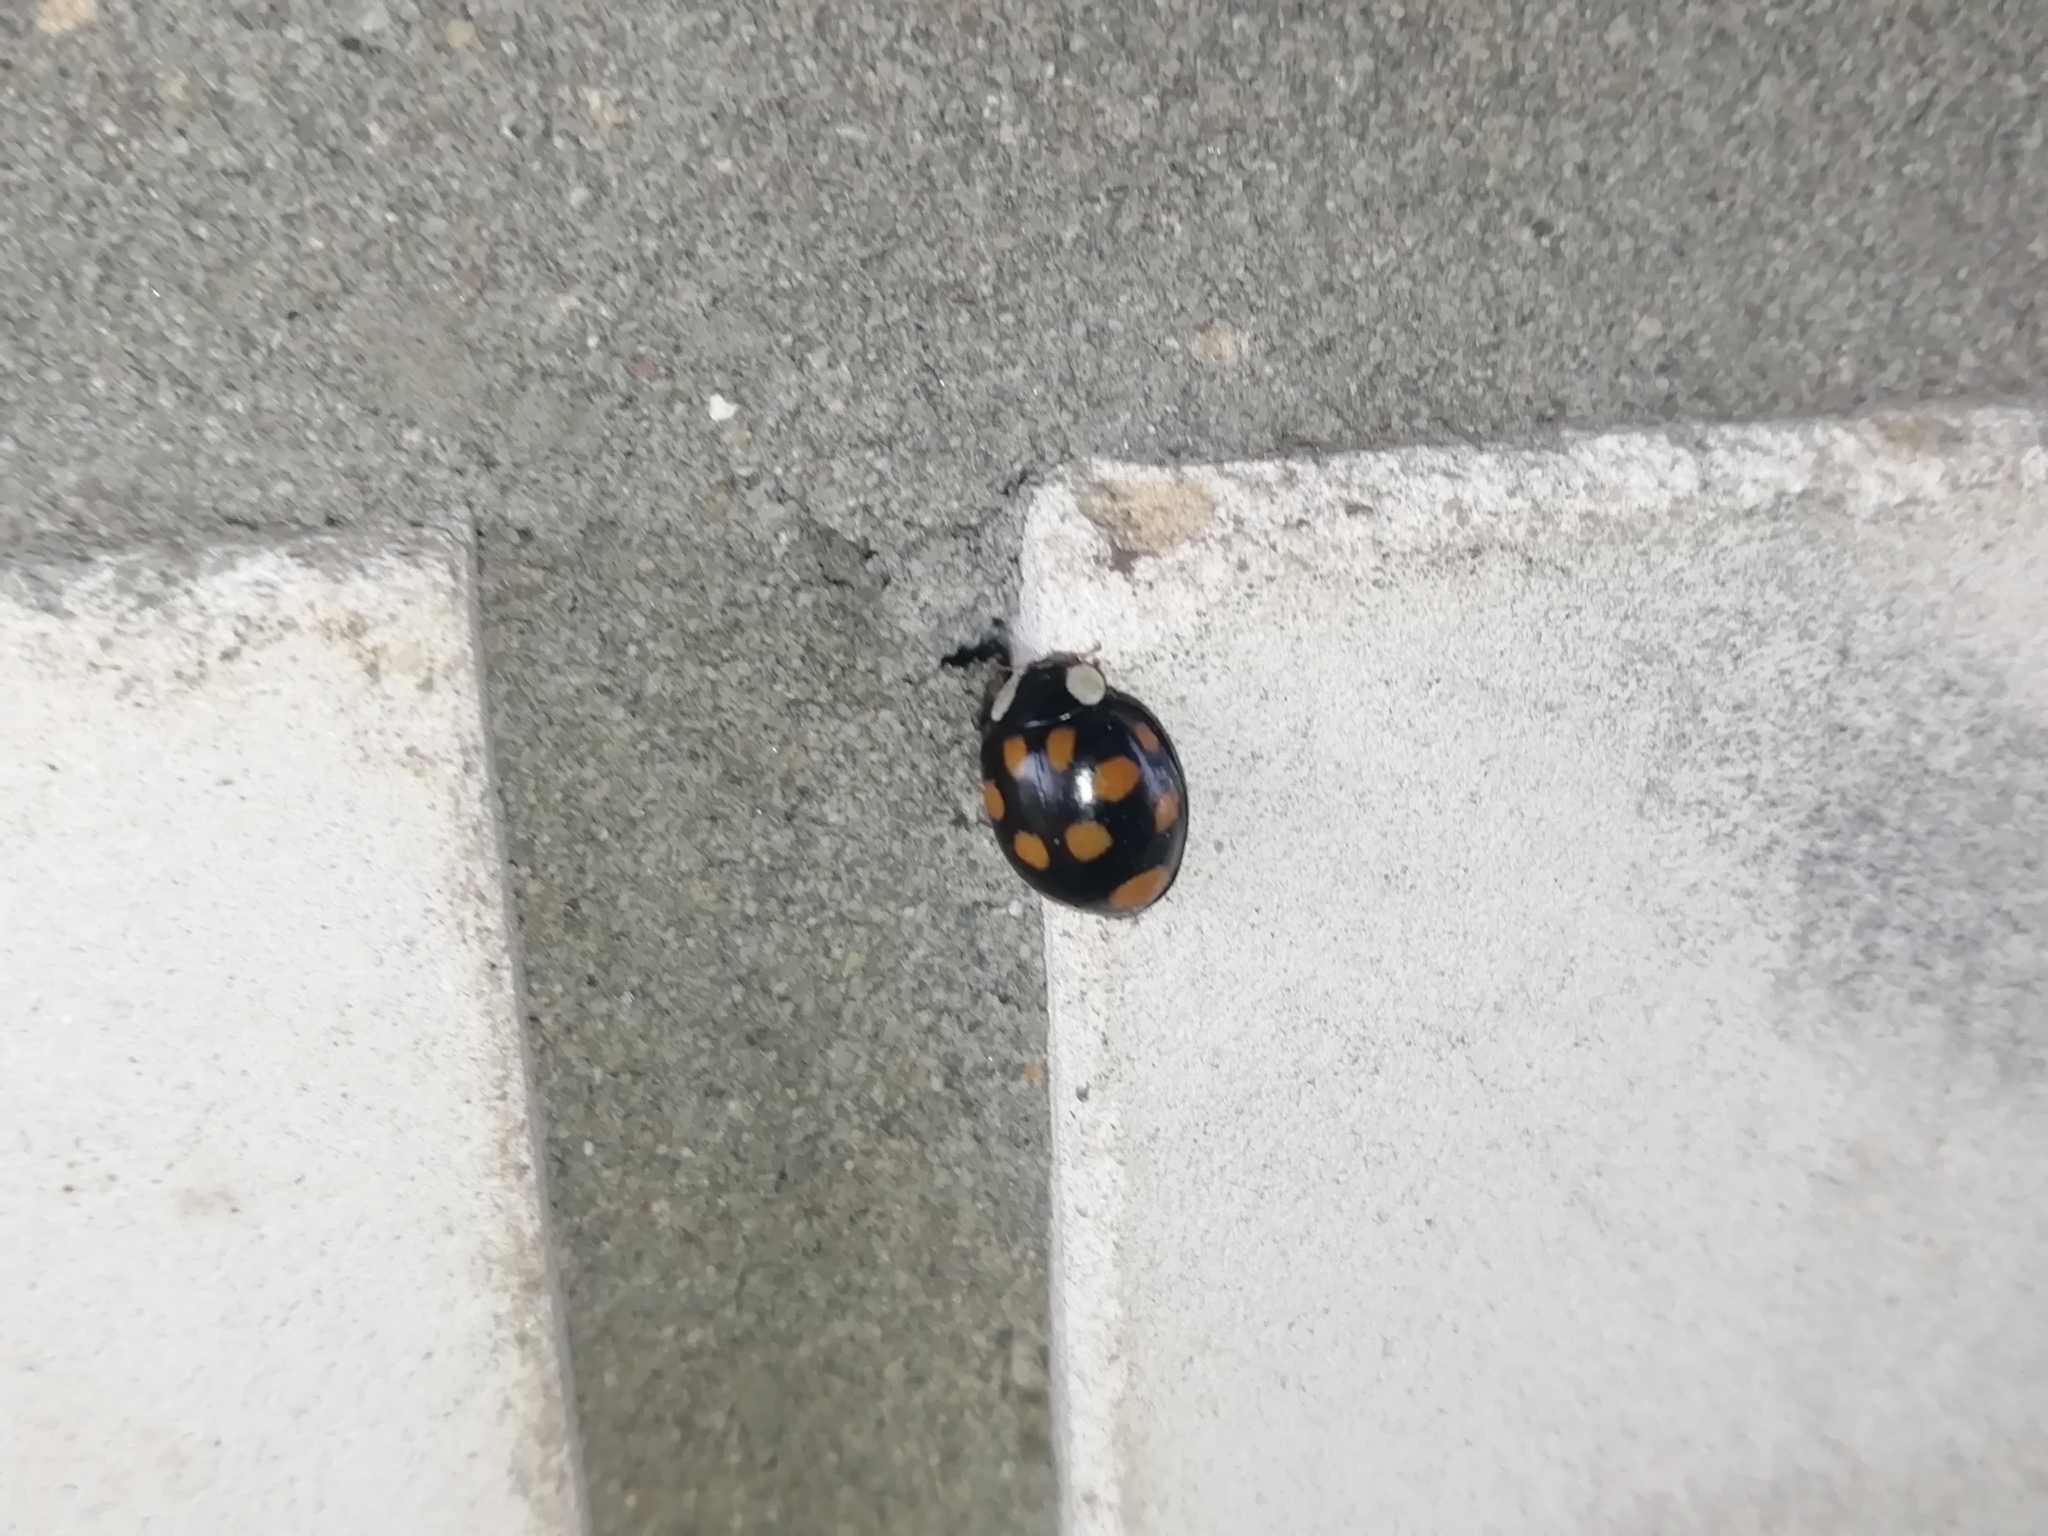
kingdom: Animalia
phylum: Arthropoda
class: Insecta
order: Coleoptera
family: Coccinellidae
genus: Harmonia
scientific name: Harmonia axyridis
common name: Harlequin ladybird
